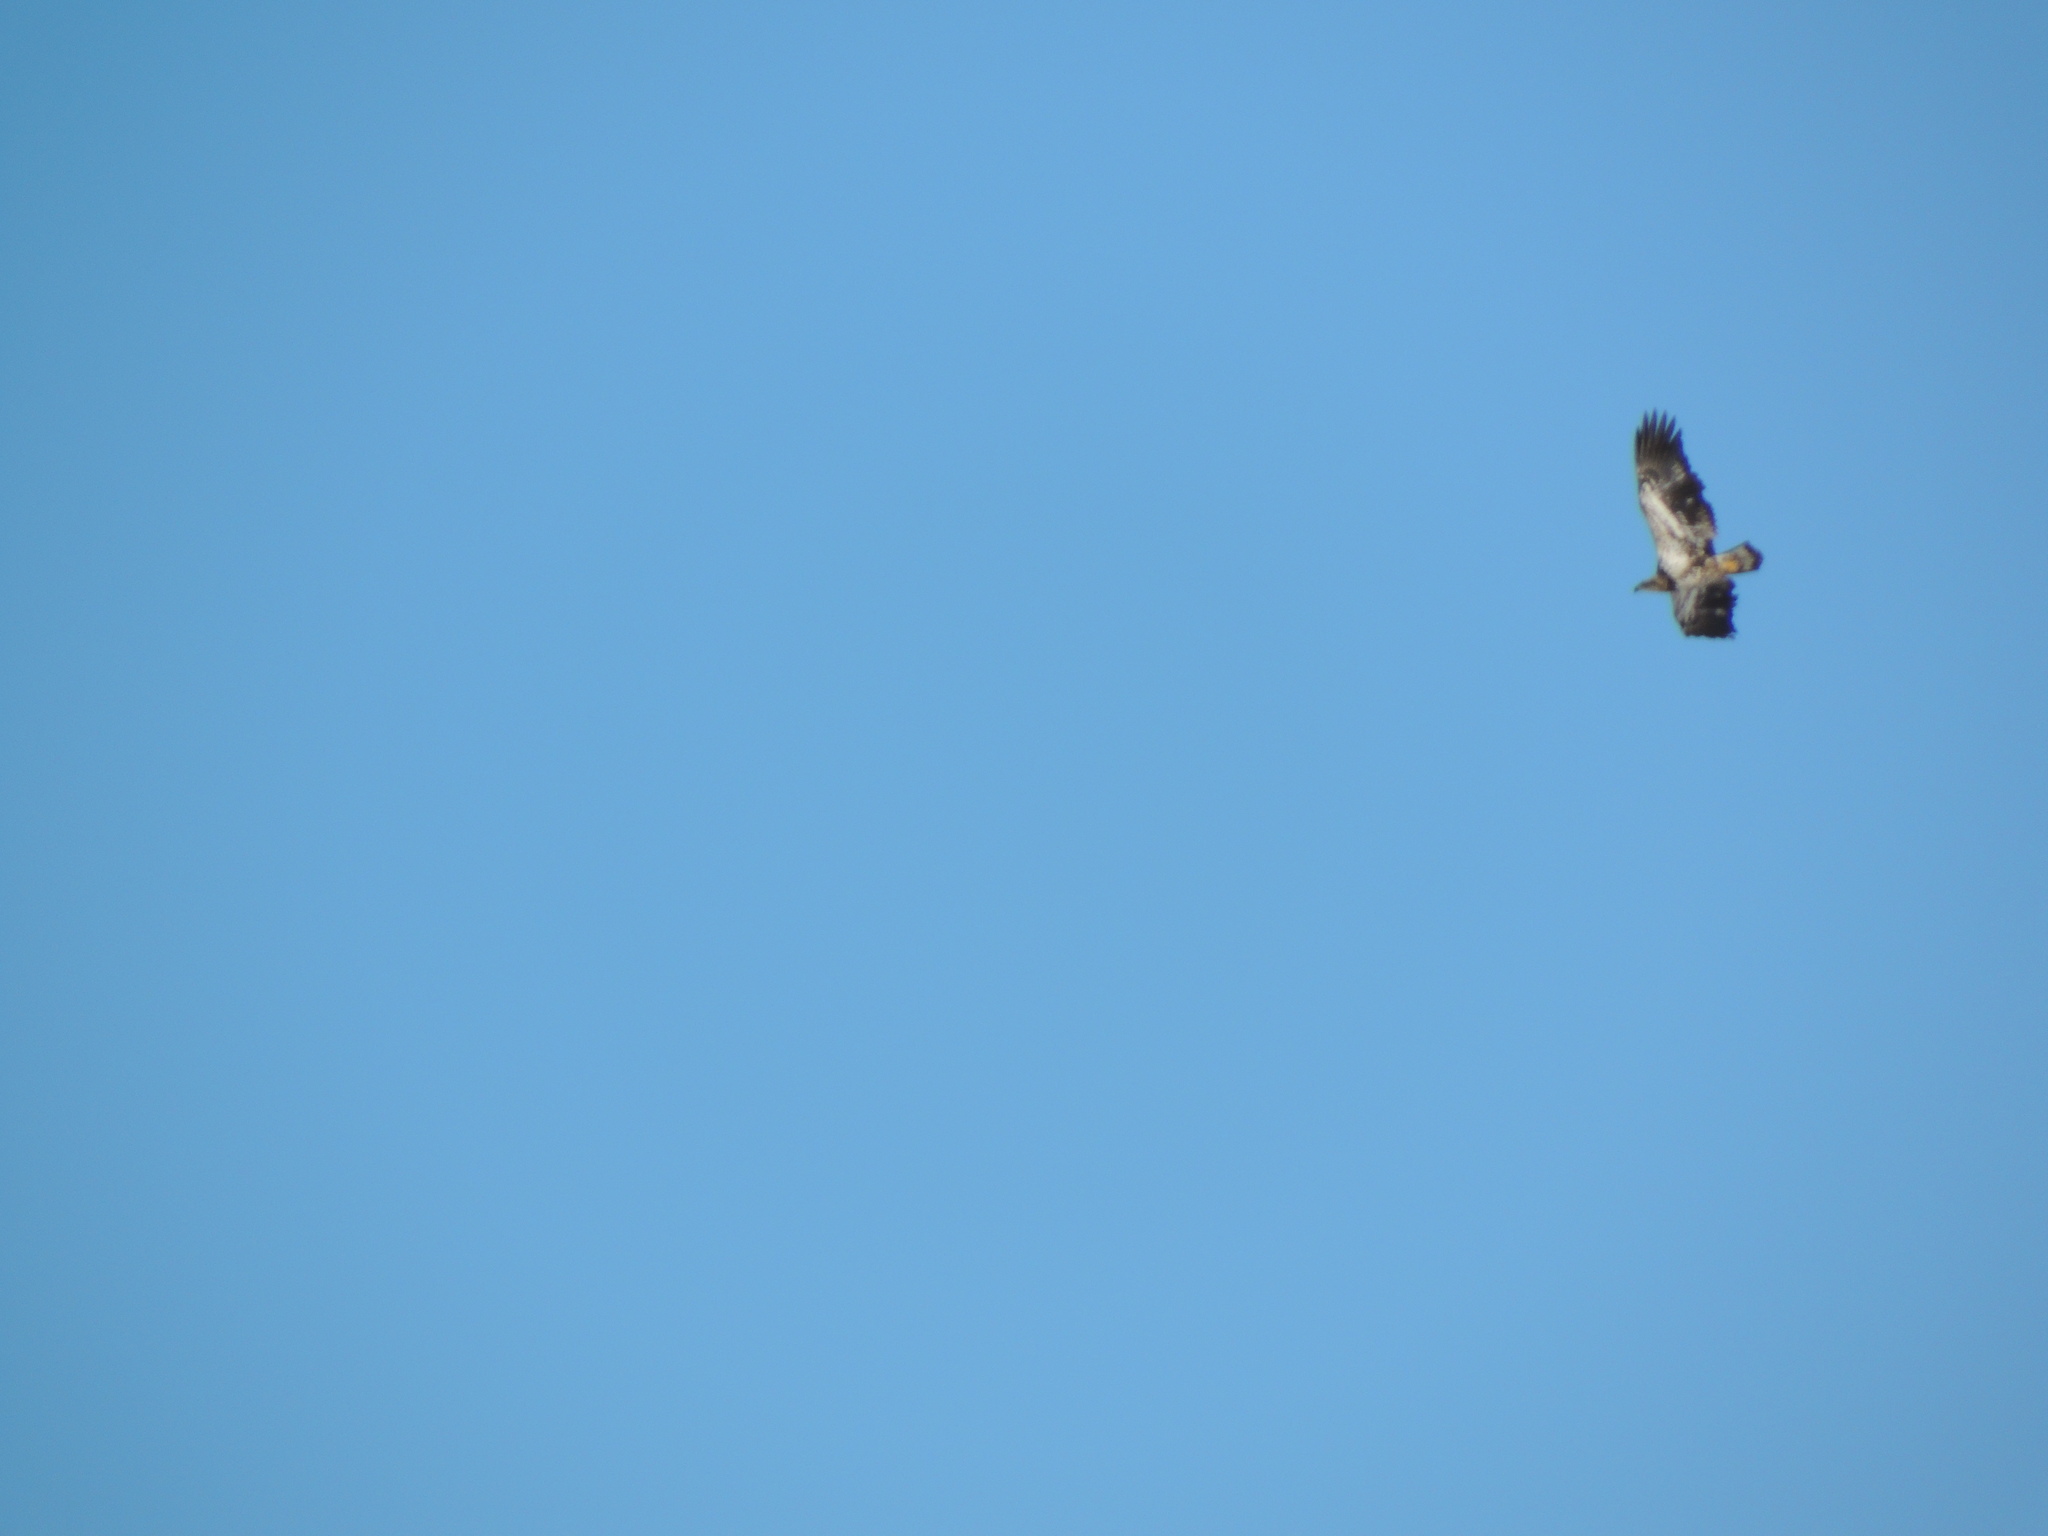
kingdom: Animalia
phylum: Chordata
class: Aves
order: Accipitriformes
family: Accipitridae
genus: Haliaeetus
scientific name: Haliaeetus leucocephalus
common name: Bald eagle
